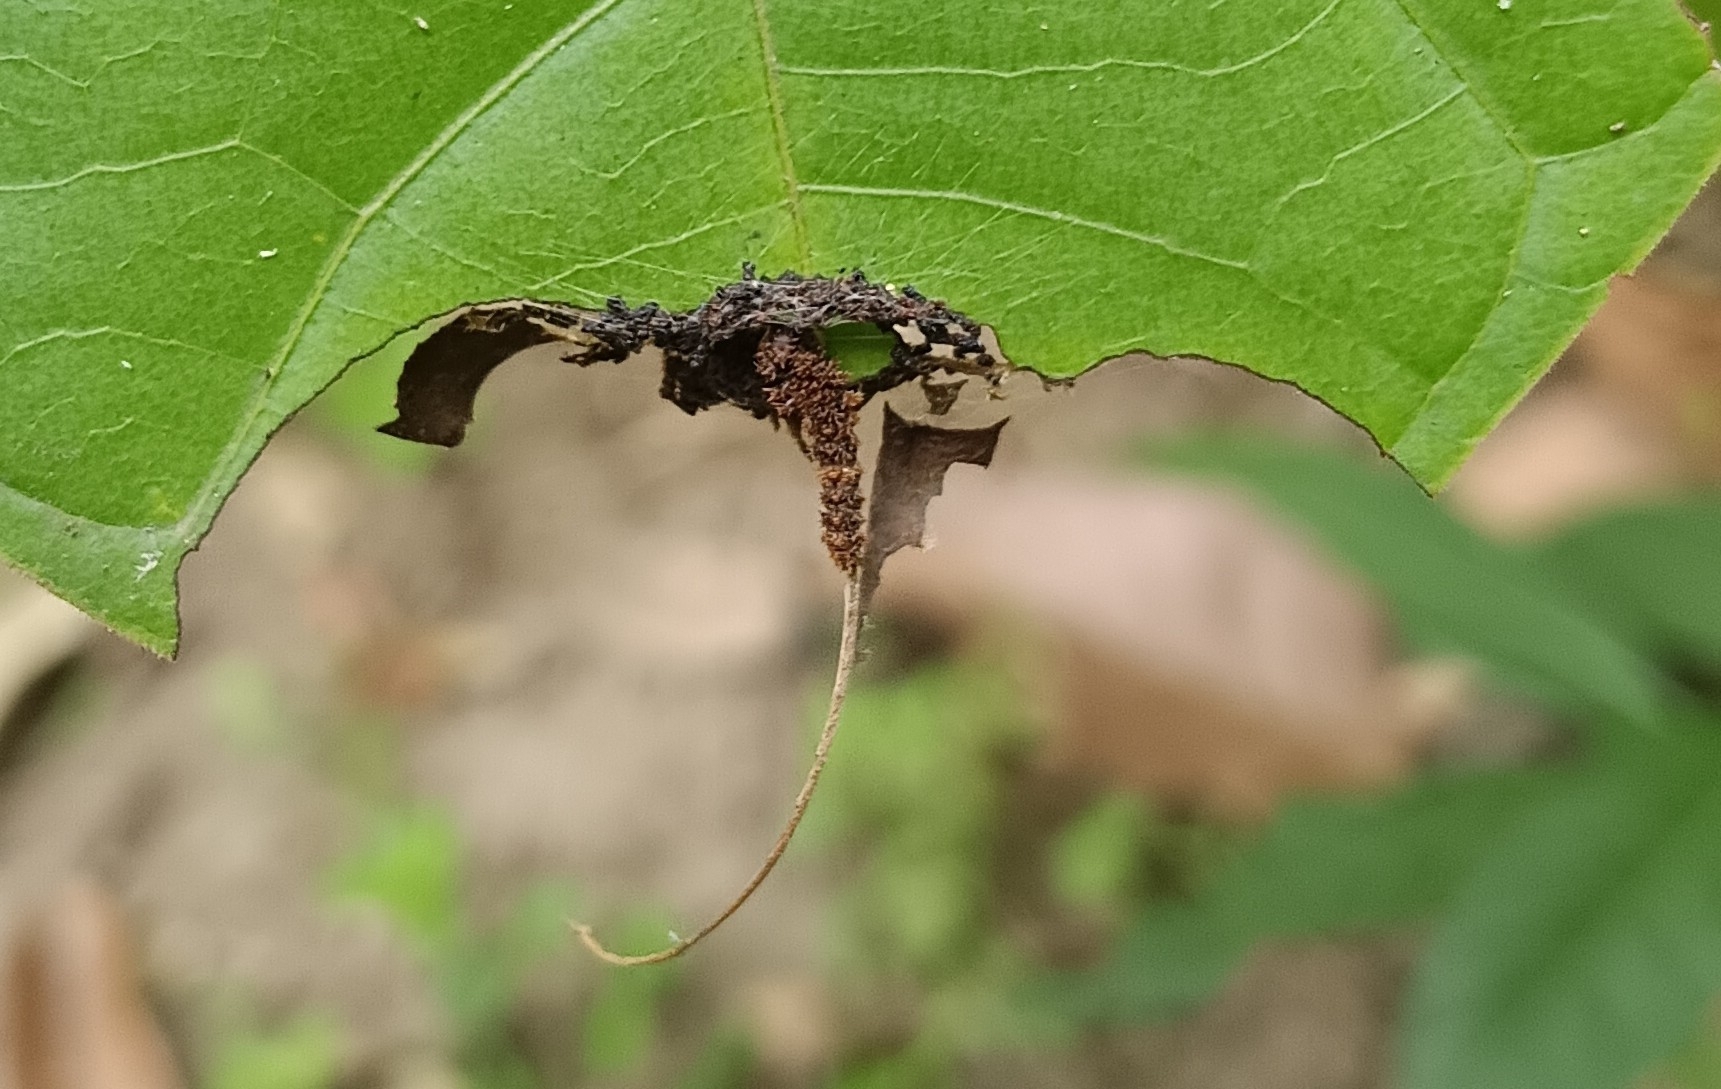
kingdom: Animalia
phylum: Arthropoda
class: Insecta
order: Lepidoptera
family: Nymphalidae
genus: Limenitis
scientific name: Limenitis Moduza procris
